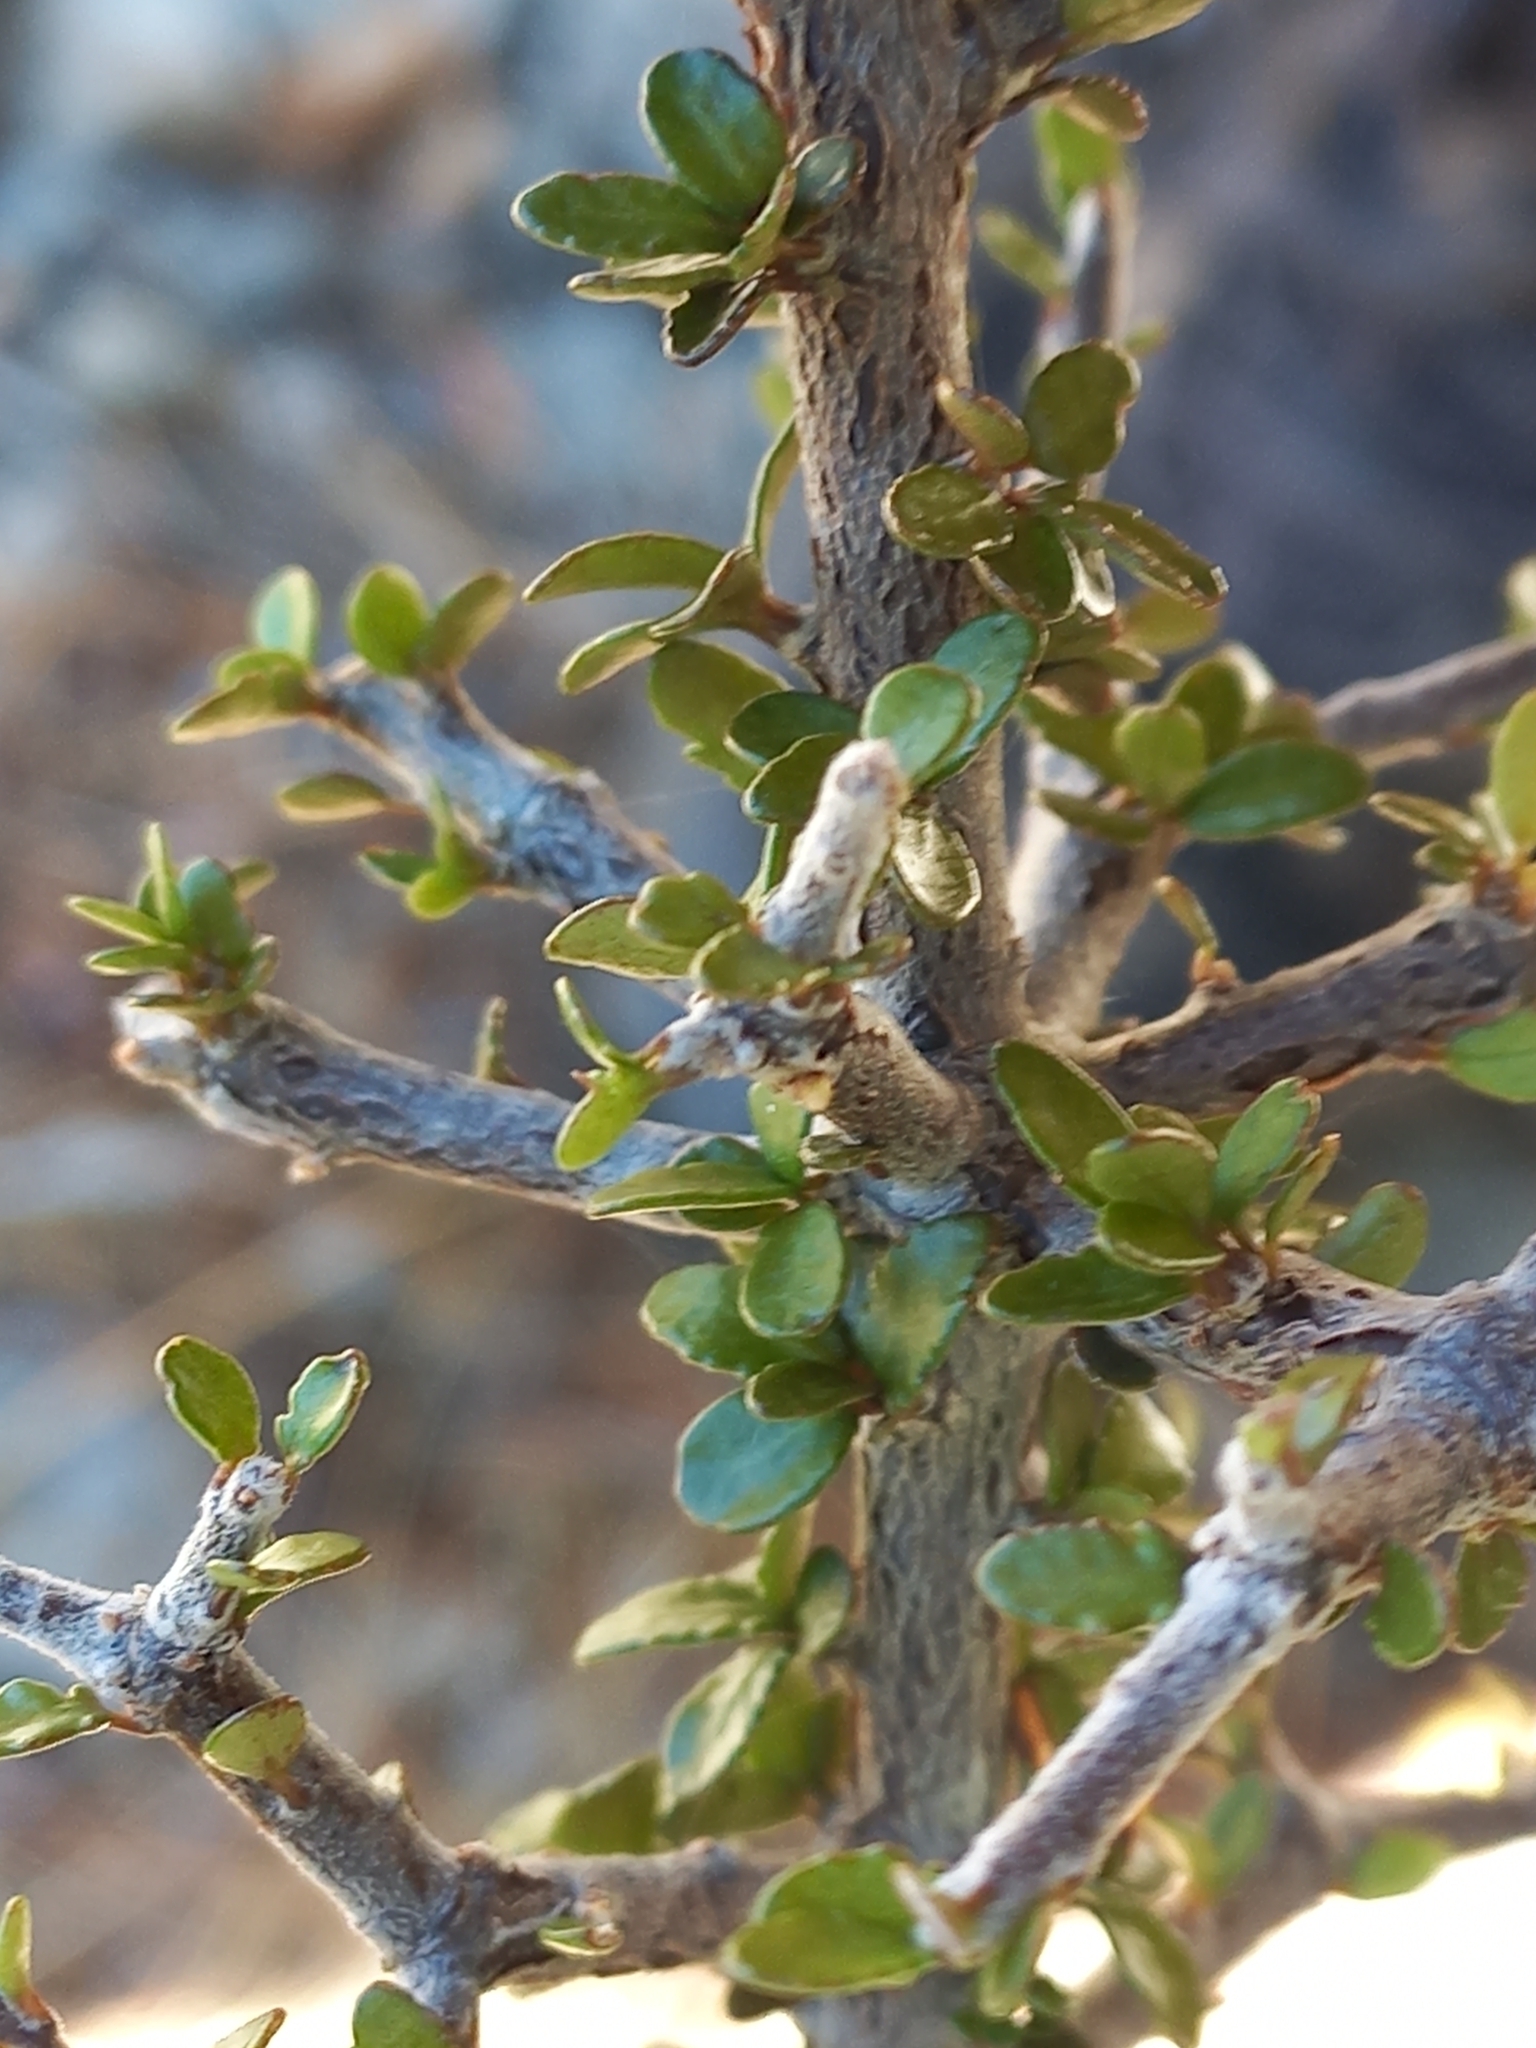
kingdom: Plantae
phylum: Tracheophyta
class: Magnoliopsida
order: Apiales
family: Pittosporaceae
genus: Pittosporum
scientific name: Pittosporum rigidum
